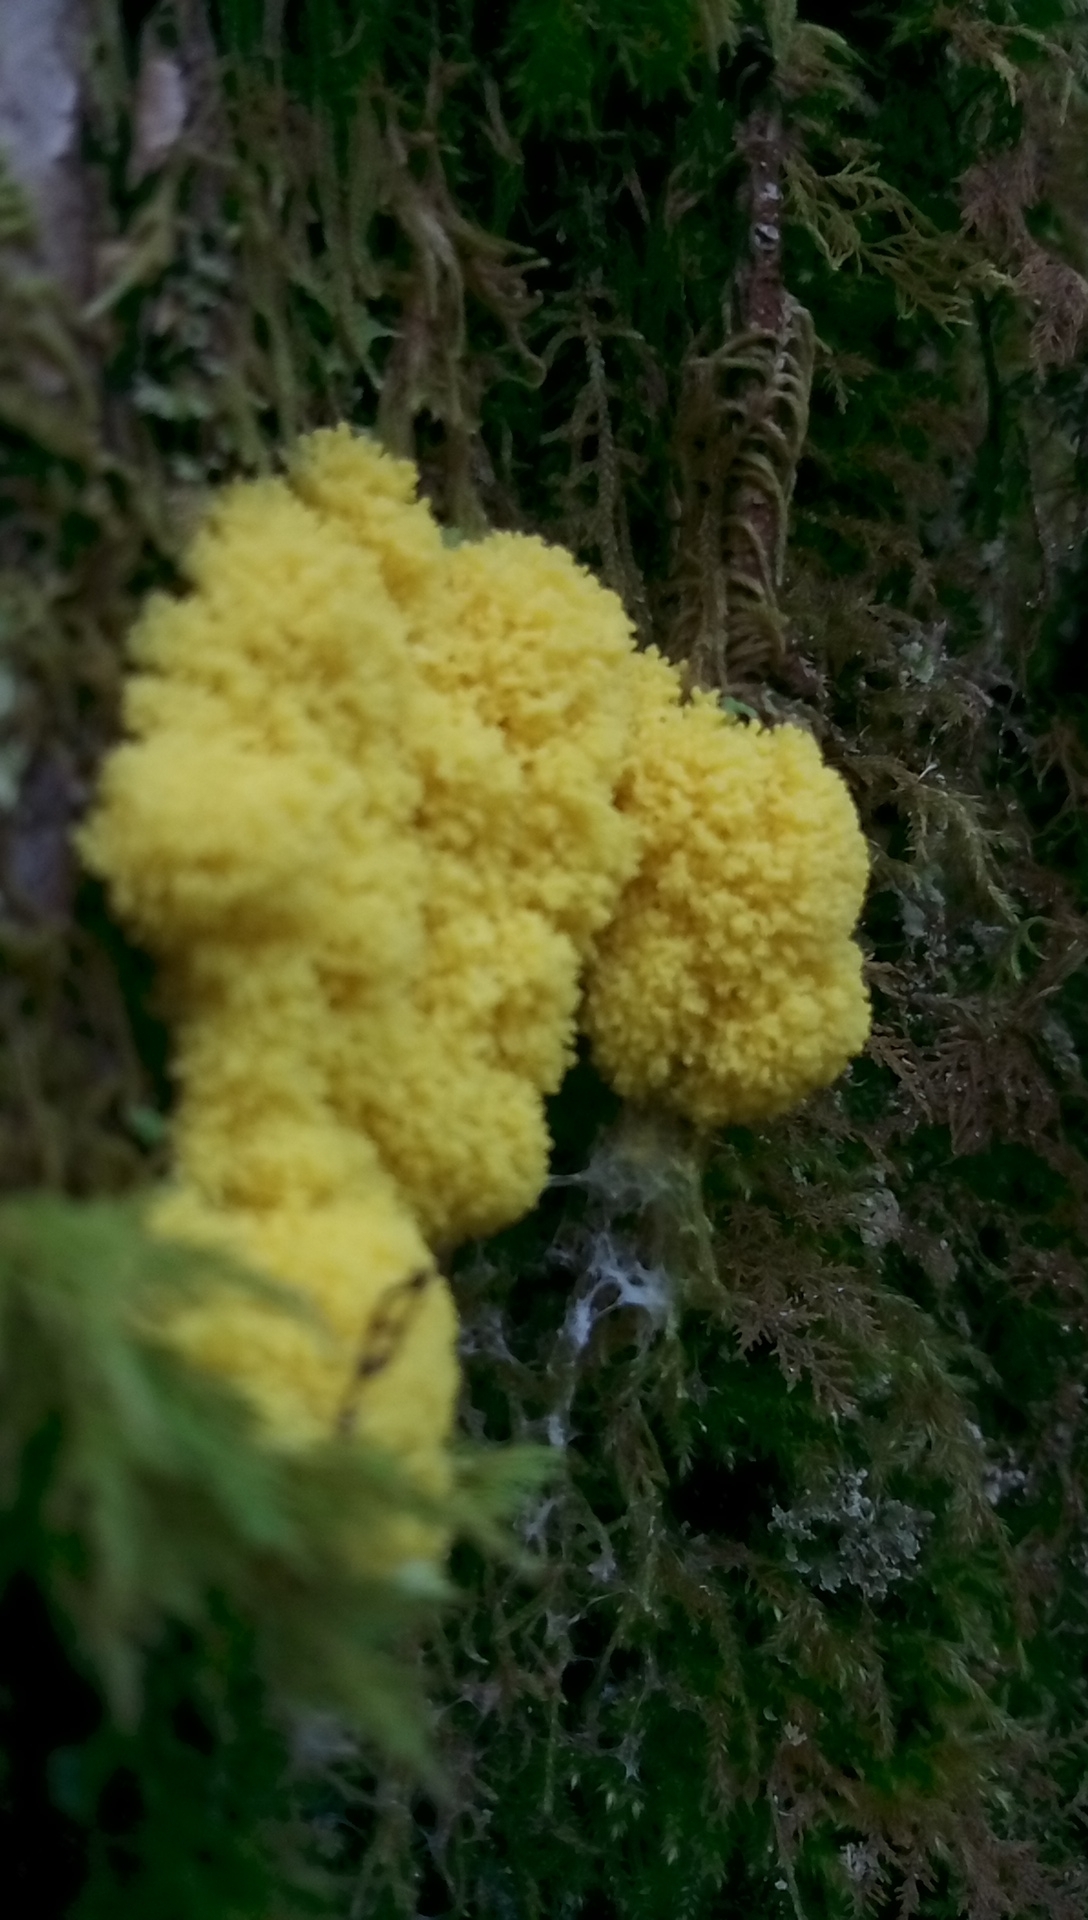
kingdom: Protozoa
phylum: Mycetozoa
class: Myxomycetes
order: Physarales
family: Physaraceae
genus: Fuligo
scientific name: Fuligo septica
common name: Dog vomit slime mold
